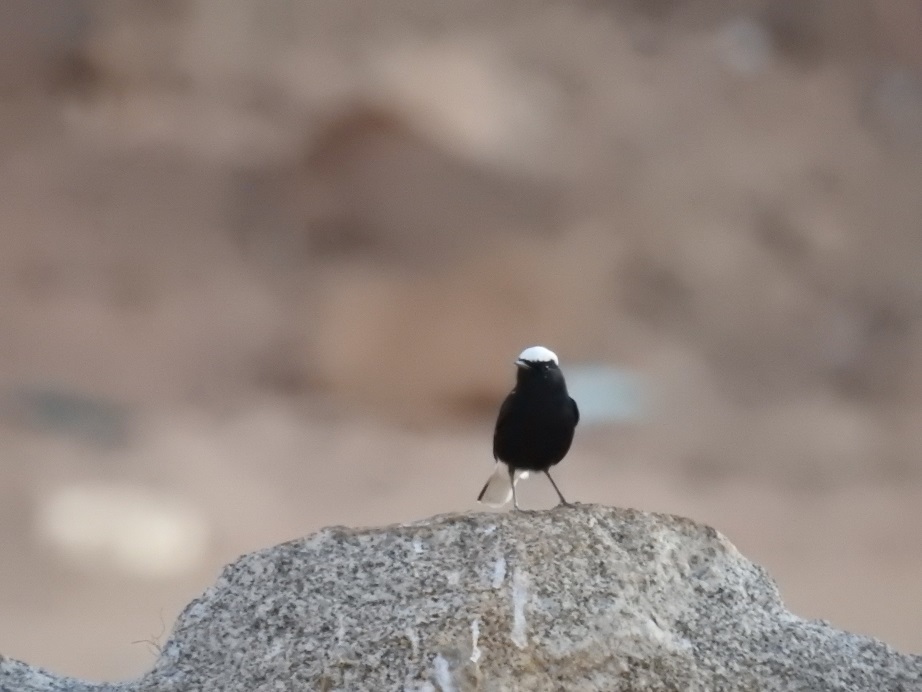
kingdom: Animalia
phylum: Chordata
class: Aves
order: Passeriformes
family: Muscicapidae
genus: Oenanthe
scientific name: Oenanthe leucopyga
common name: White-crowned wheatear
